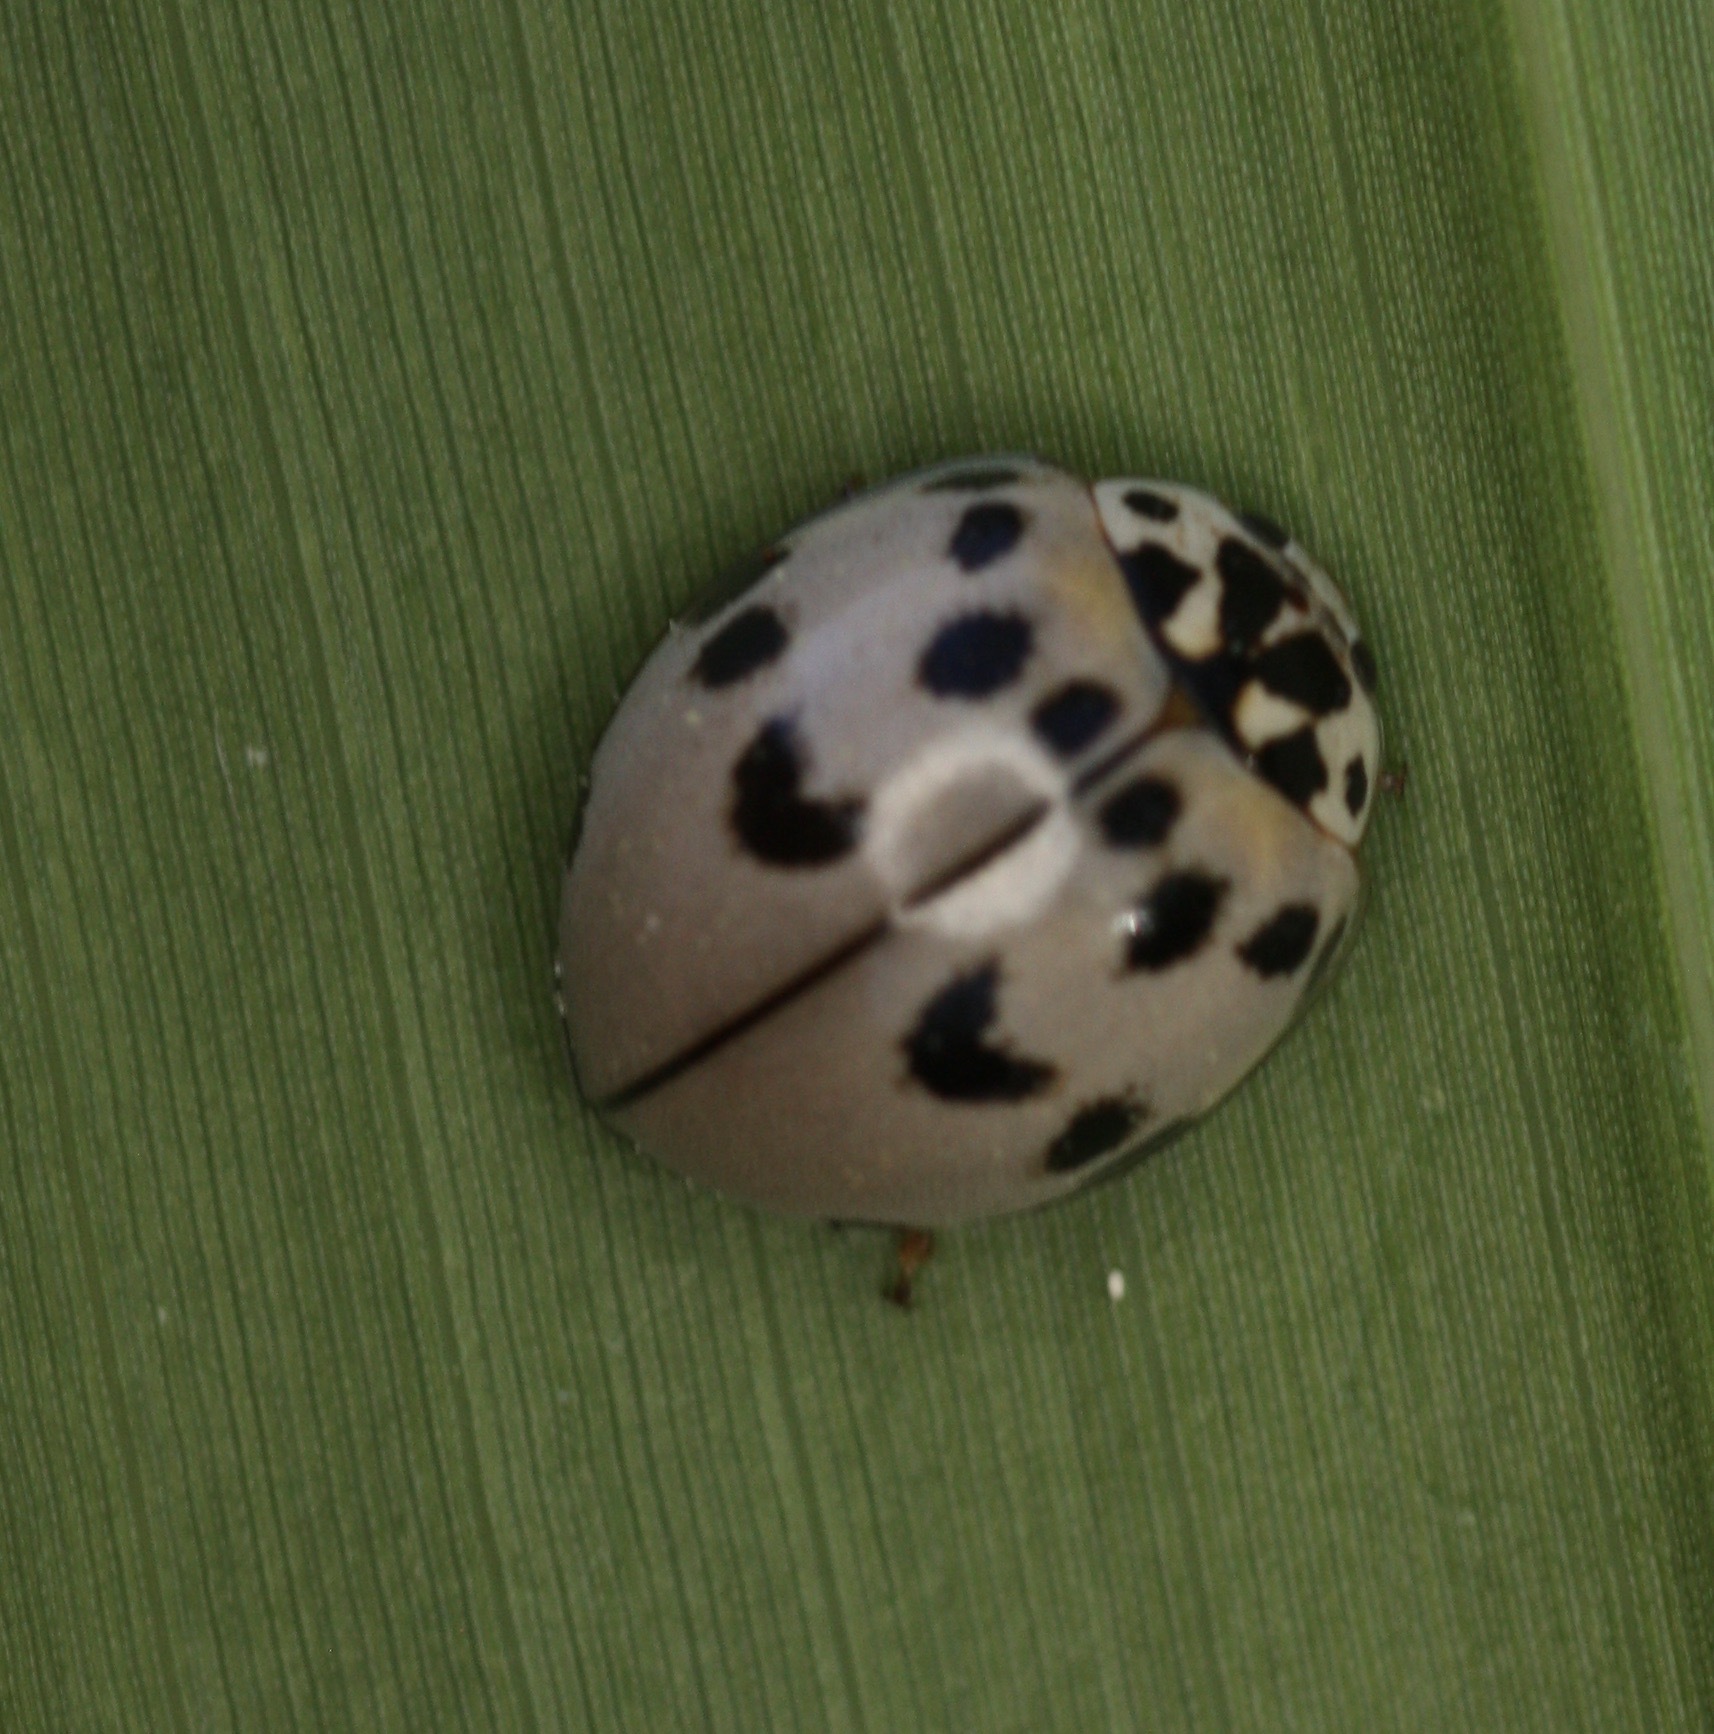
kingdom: Animalia
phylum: Arthropoda
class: Insecta
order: Coleoptera
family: Coccinellidae
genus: Olla
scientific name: Olla v-nigrum
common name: Ashy gray lady beetle
